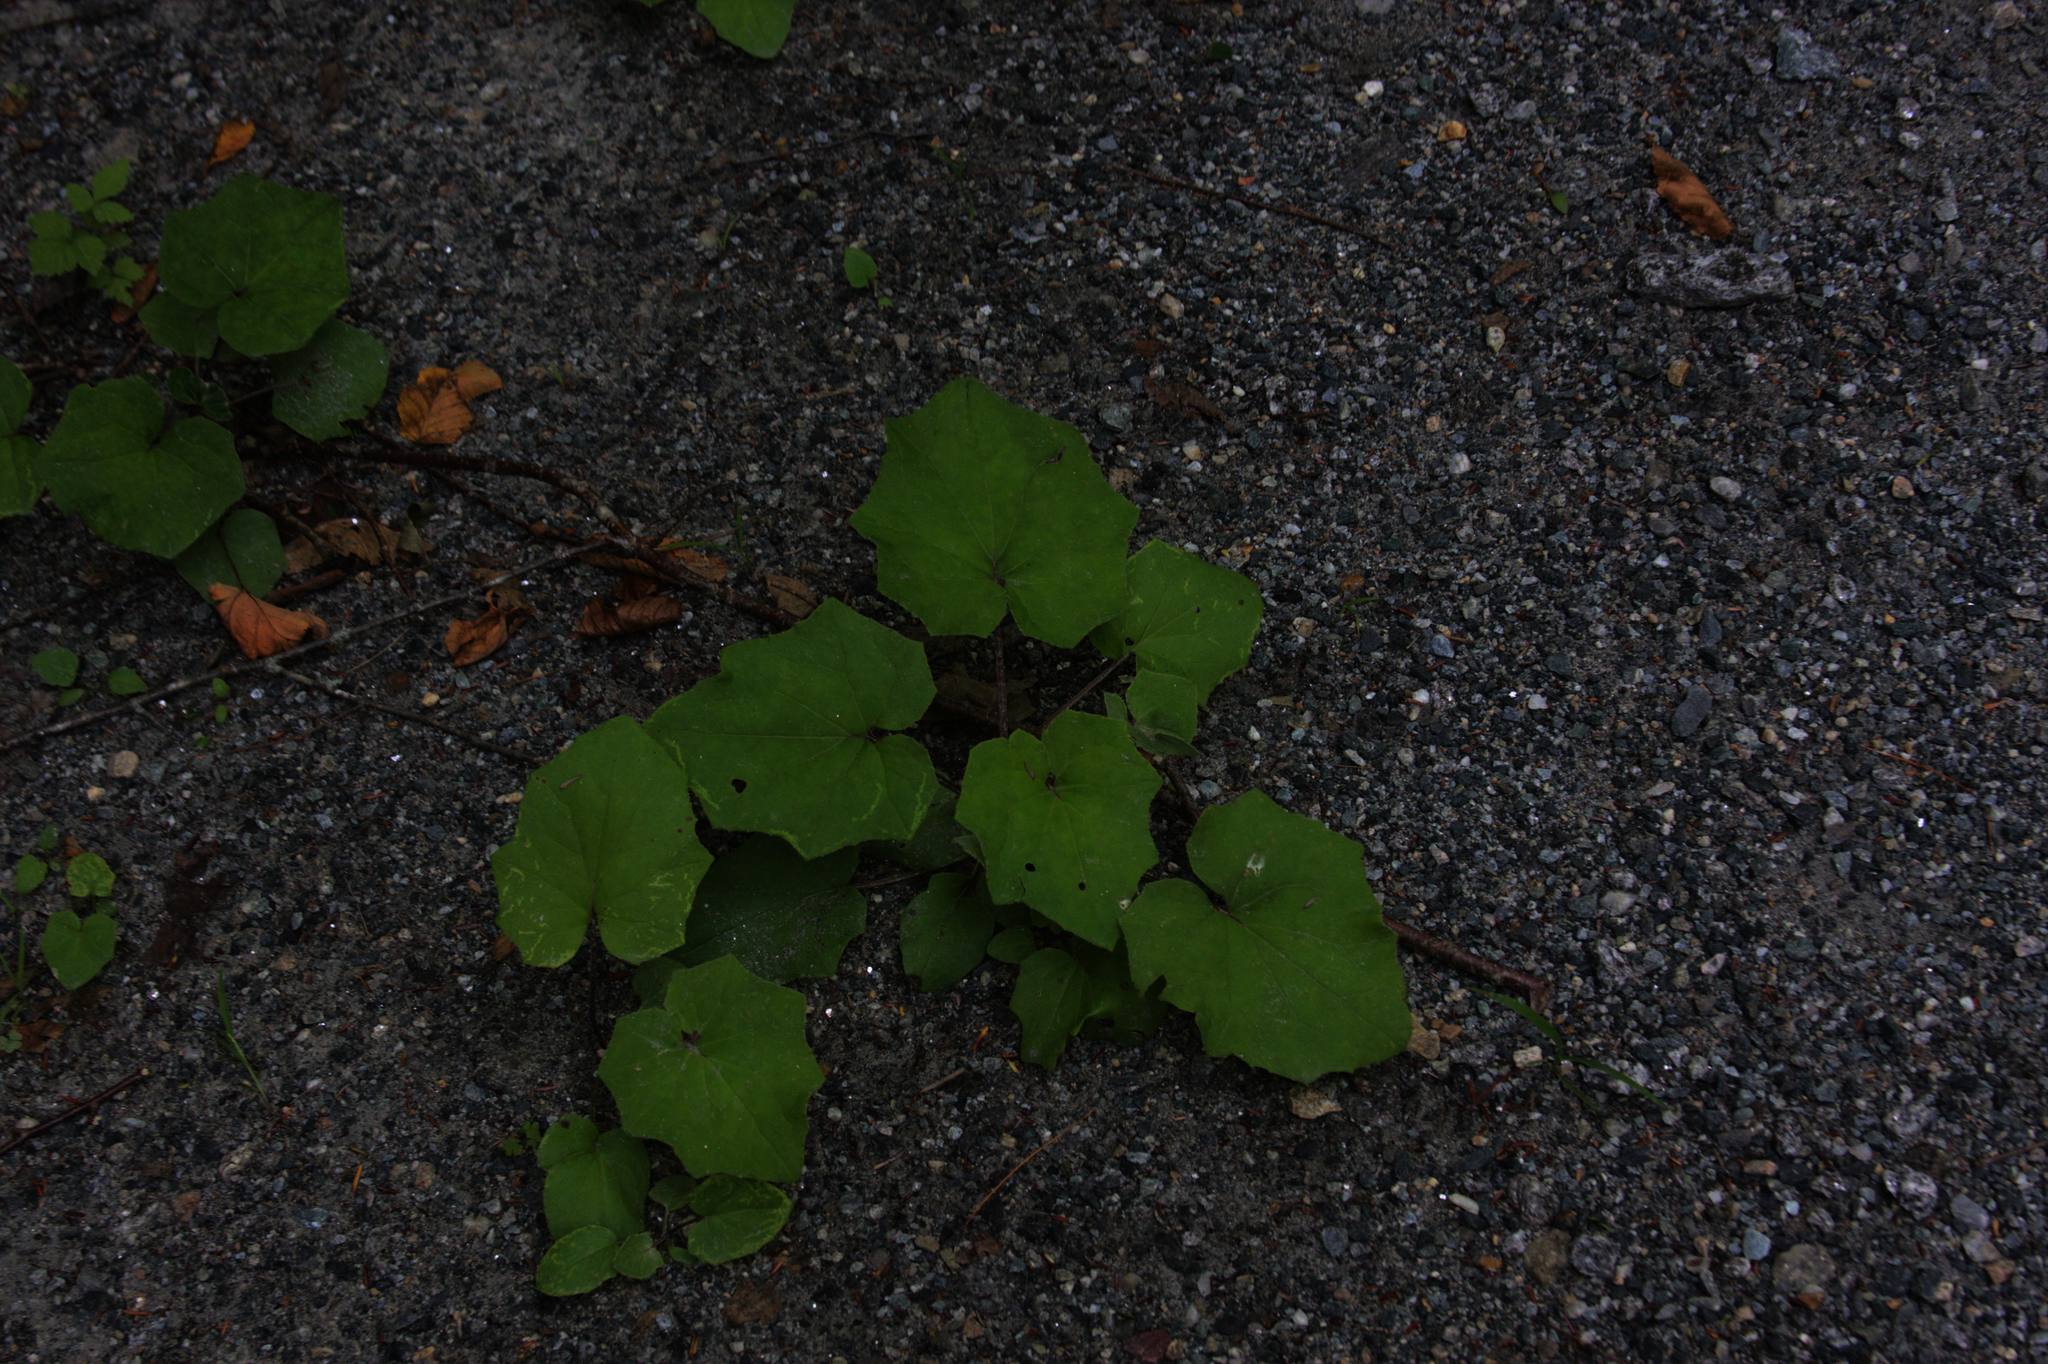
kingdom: Plantae
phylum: Tracheophyta
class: Magnoliopsida
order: Asterales
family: Asteraceae
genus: Tussilago
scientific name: Tussilago farfara
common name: Coltsfoot
